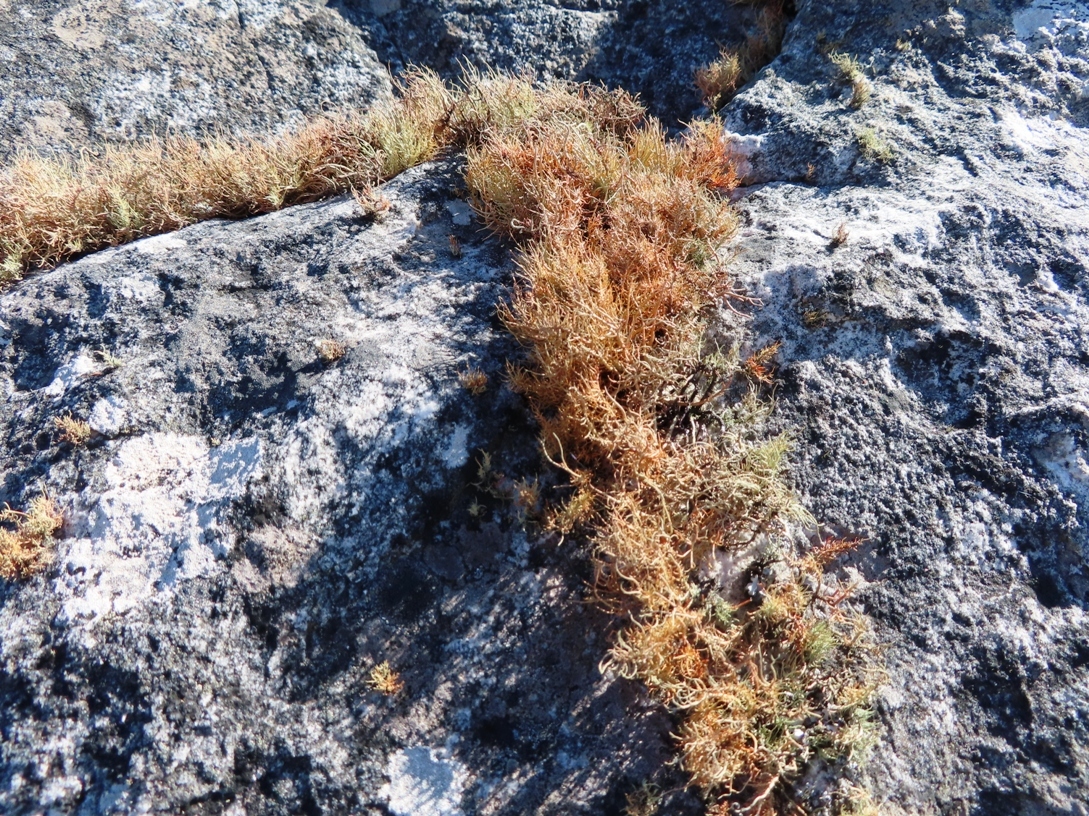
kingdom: Fungi
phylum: Ascomycota
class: Lecanoromycetes
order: Lecanorales
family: Parmeliaceae
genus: Usnea
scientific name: Usnea maculata
